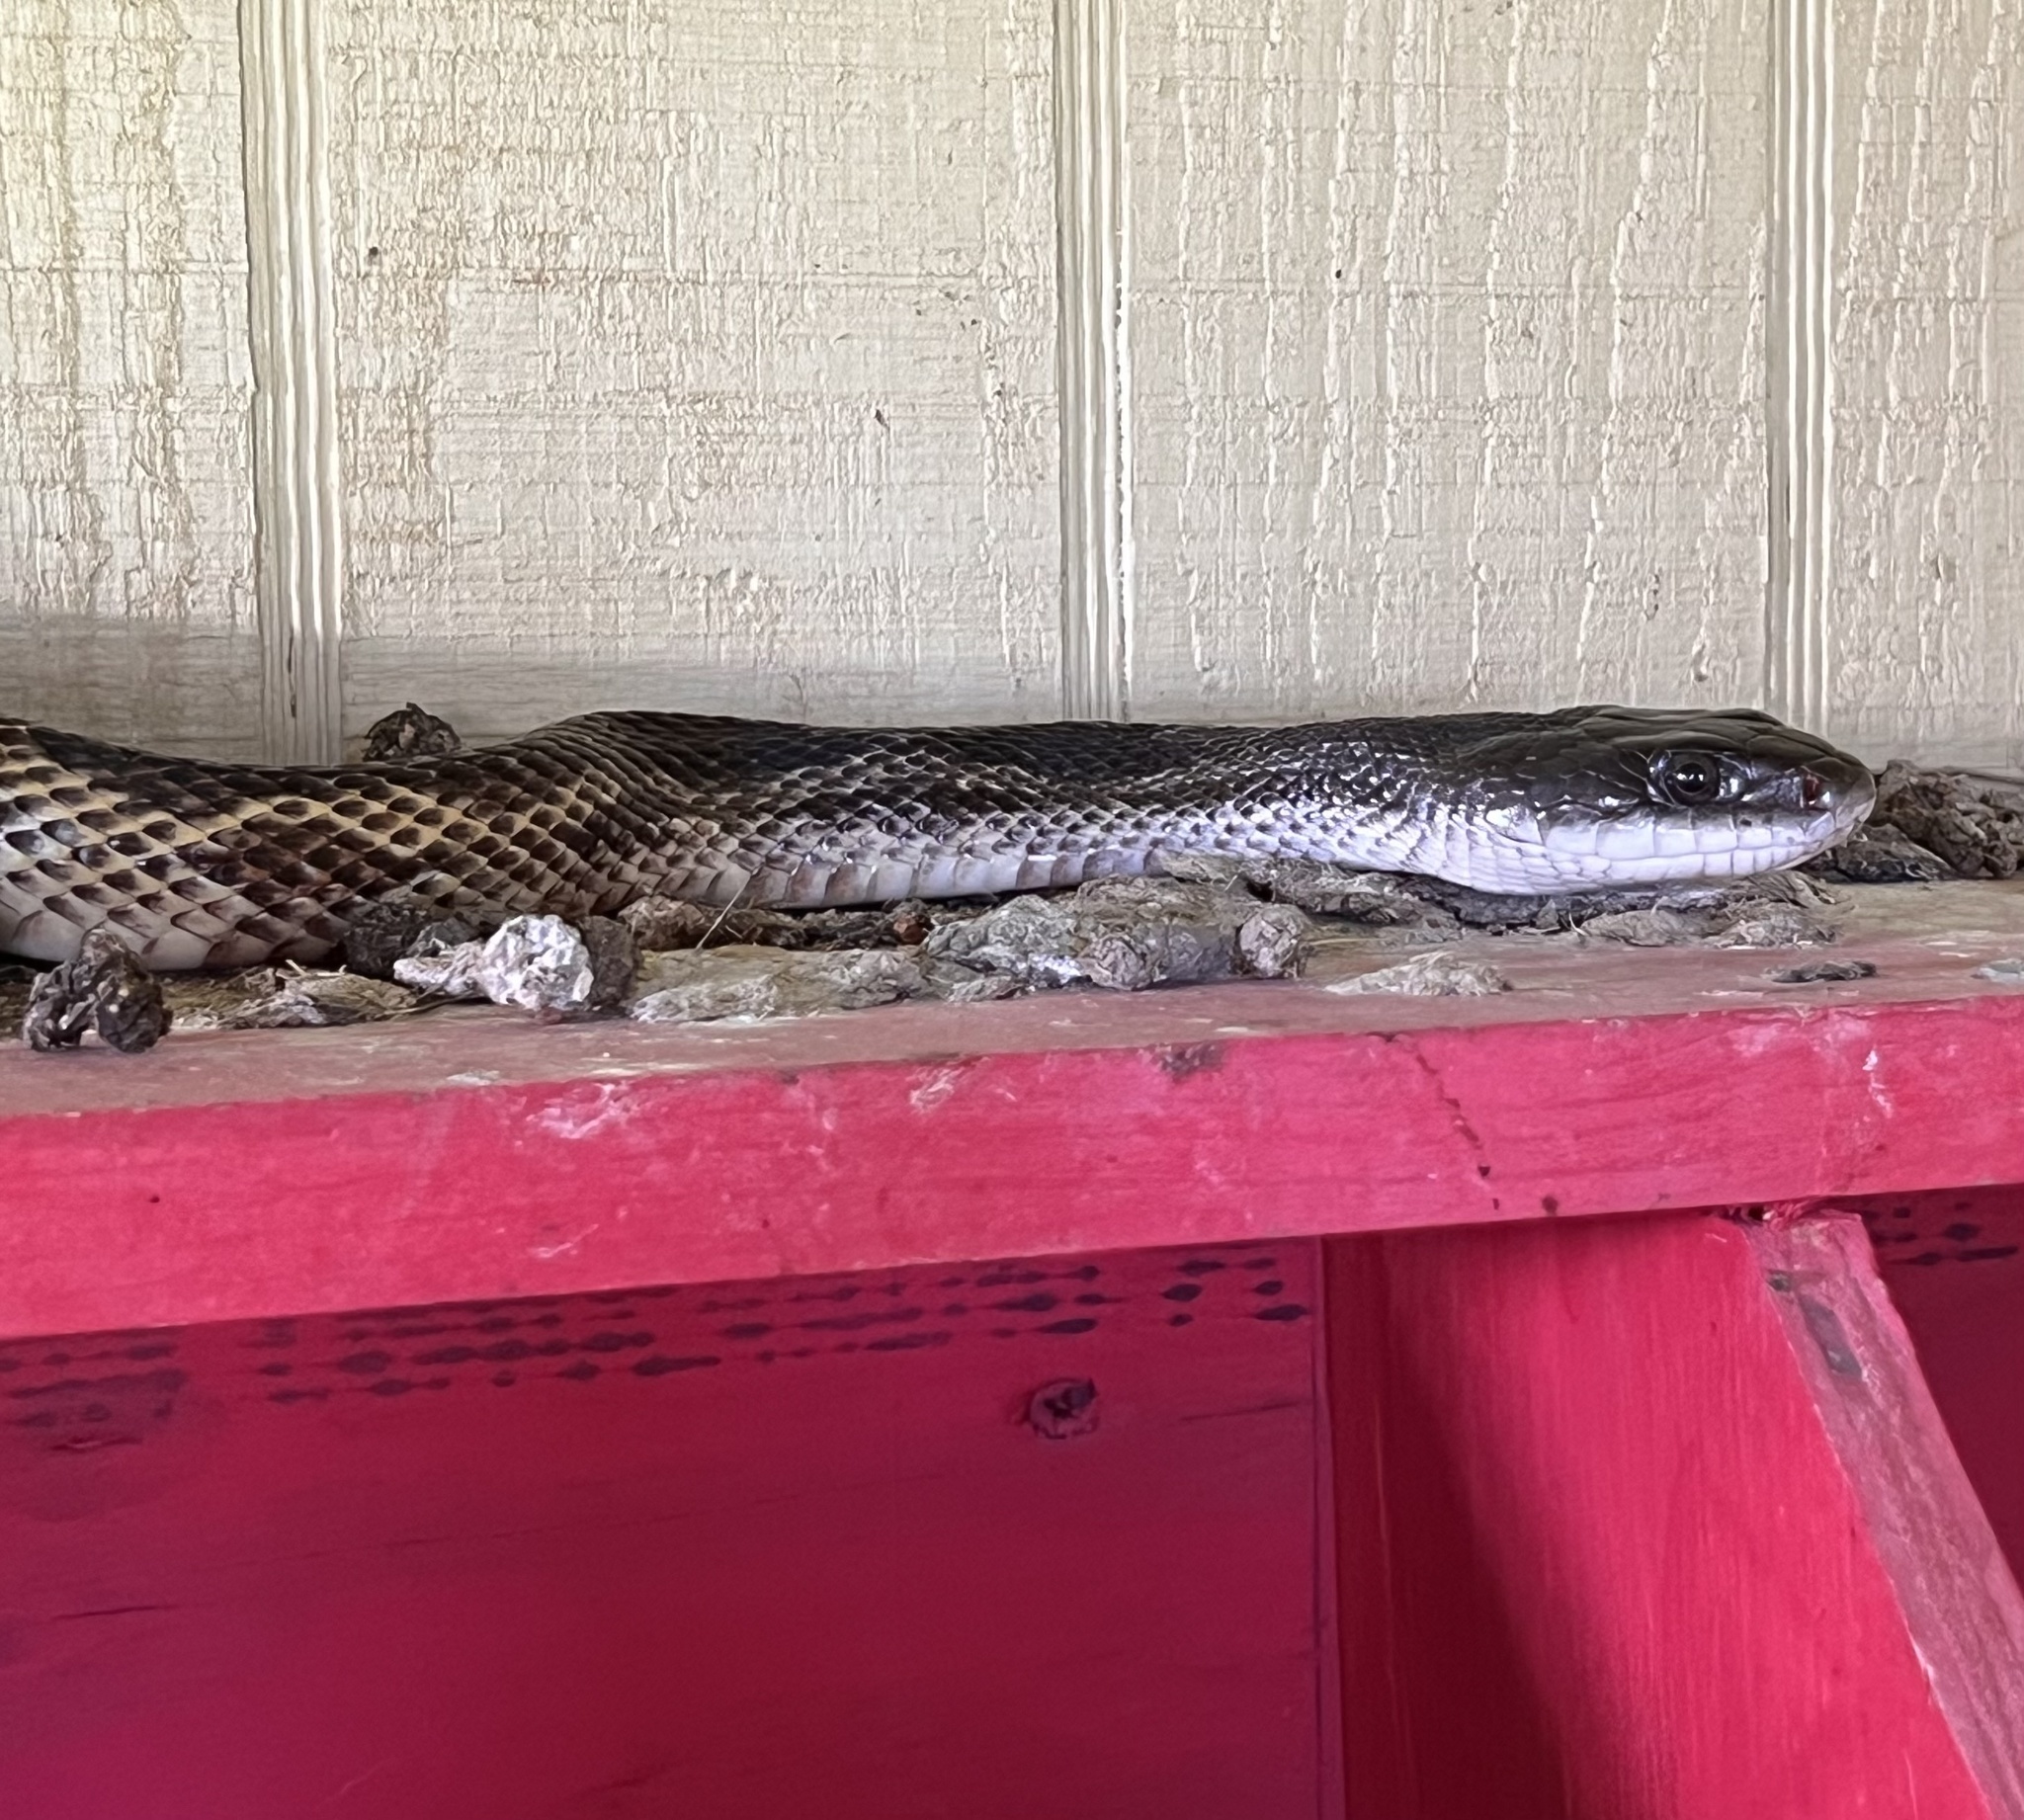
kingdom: Animalia
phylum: Chordata
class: Squamata
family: Colubridae
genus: Pantherophis
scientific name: Pantherophis obsoletus
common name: Black rat snake
